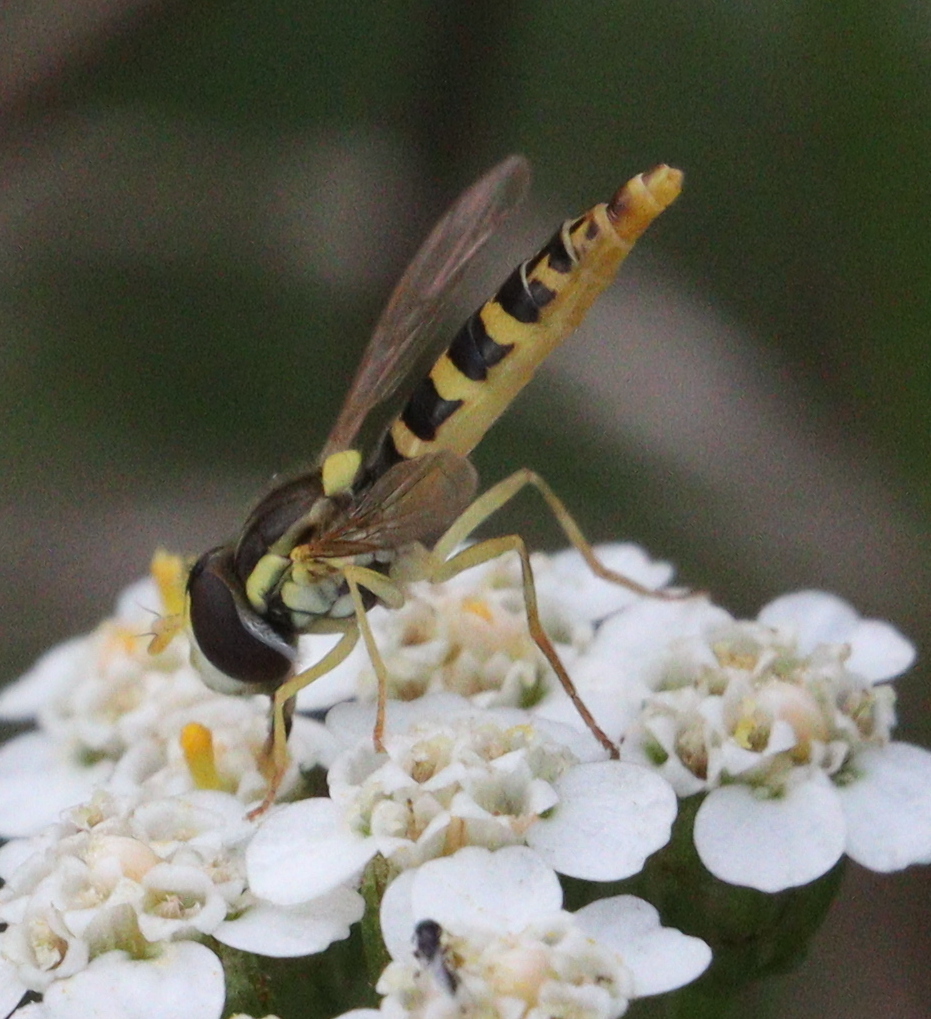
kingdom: Animalia
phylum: Arthropoda
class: Insecta
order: Diptera
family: Syrphidae
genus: Sphaerophoria
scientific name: Sphaerophoria scripta
